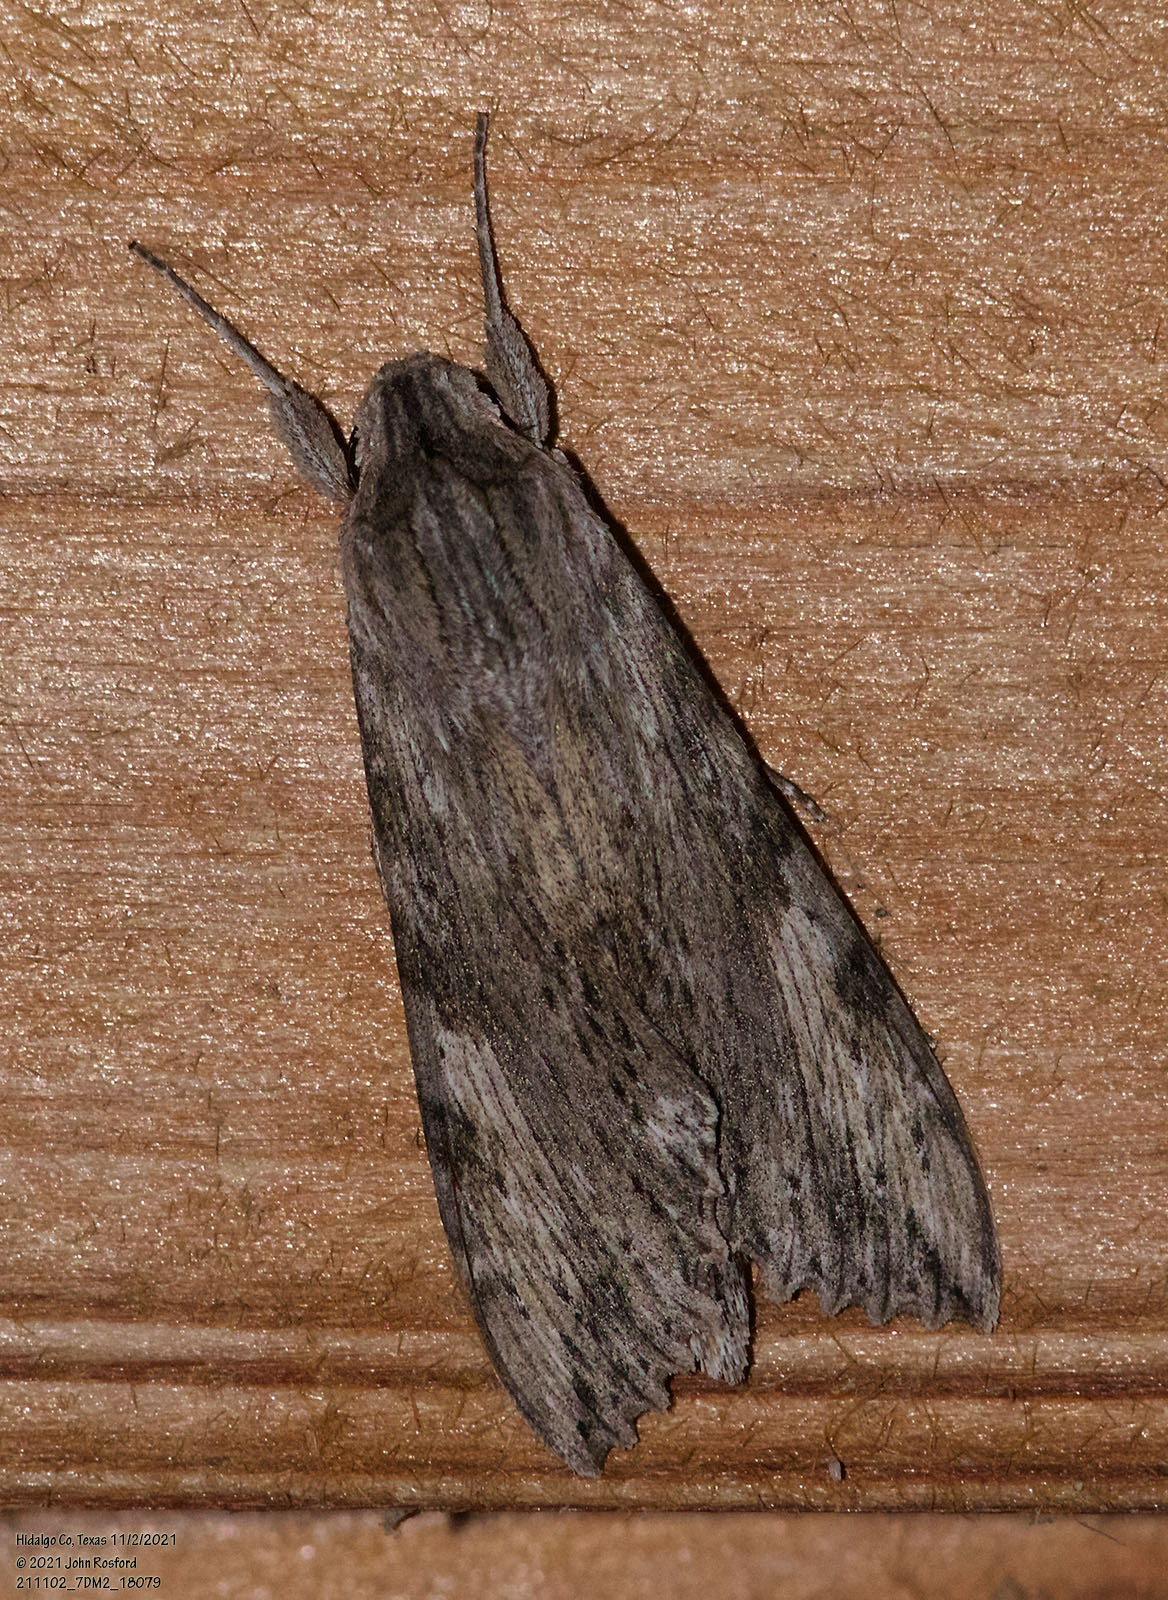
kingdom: Animalia
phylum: Arthropoda
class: Insecta
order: Lepidoptera
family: Sphingidae
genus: Erinnyis
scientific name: Erinnyis obscura
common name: Obscure sphinx
